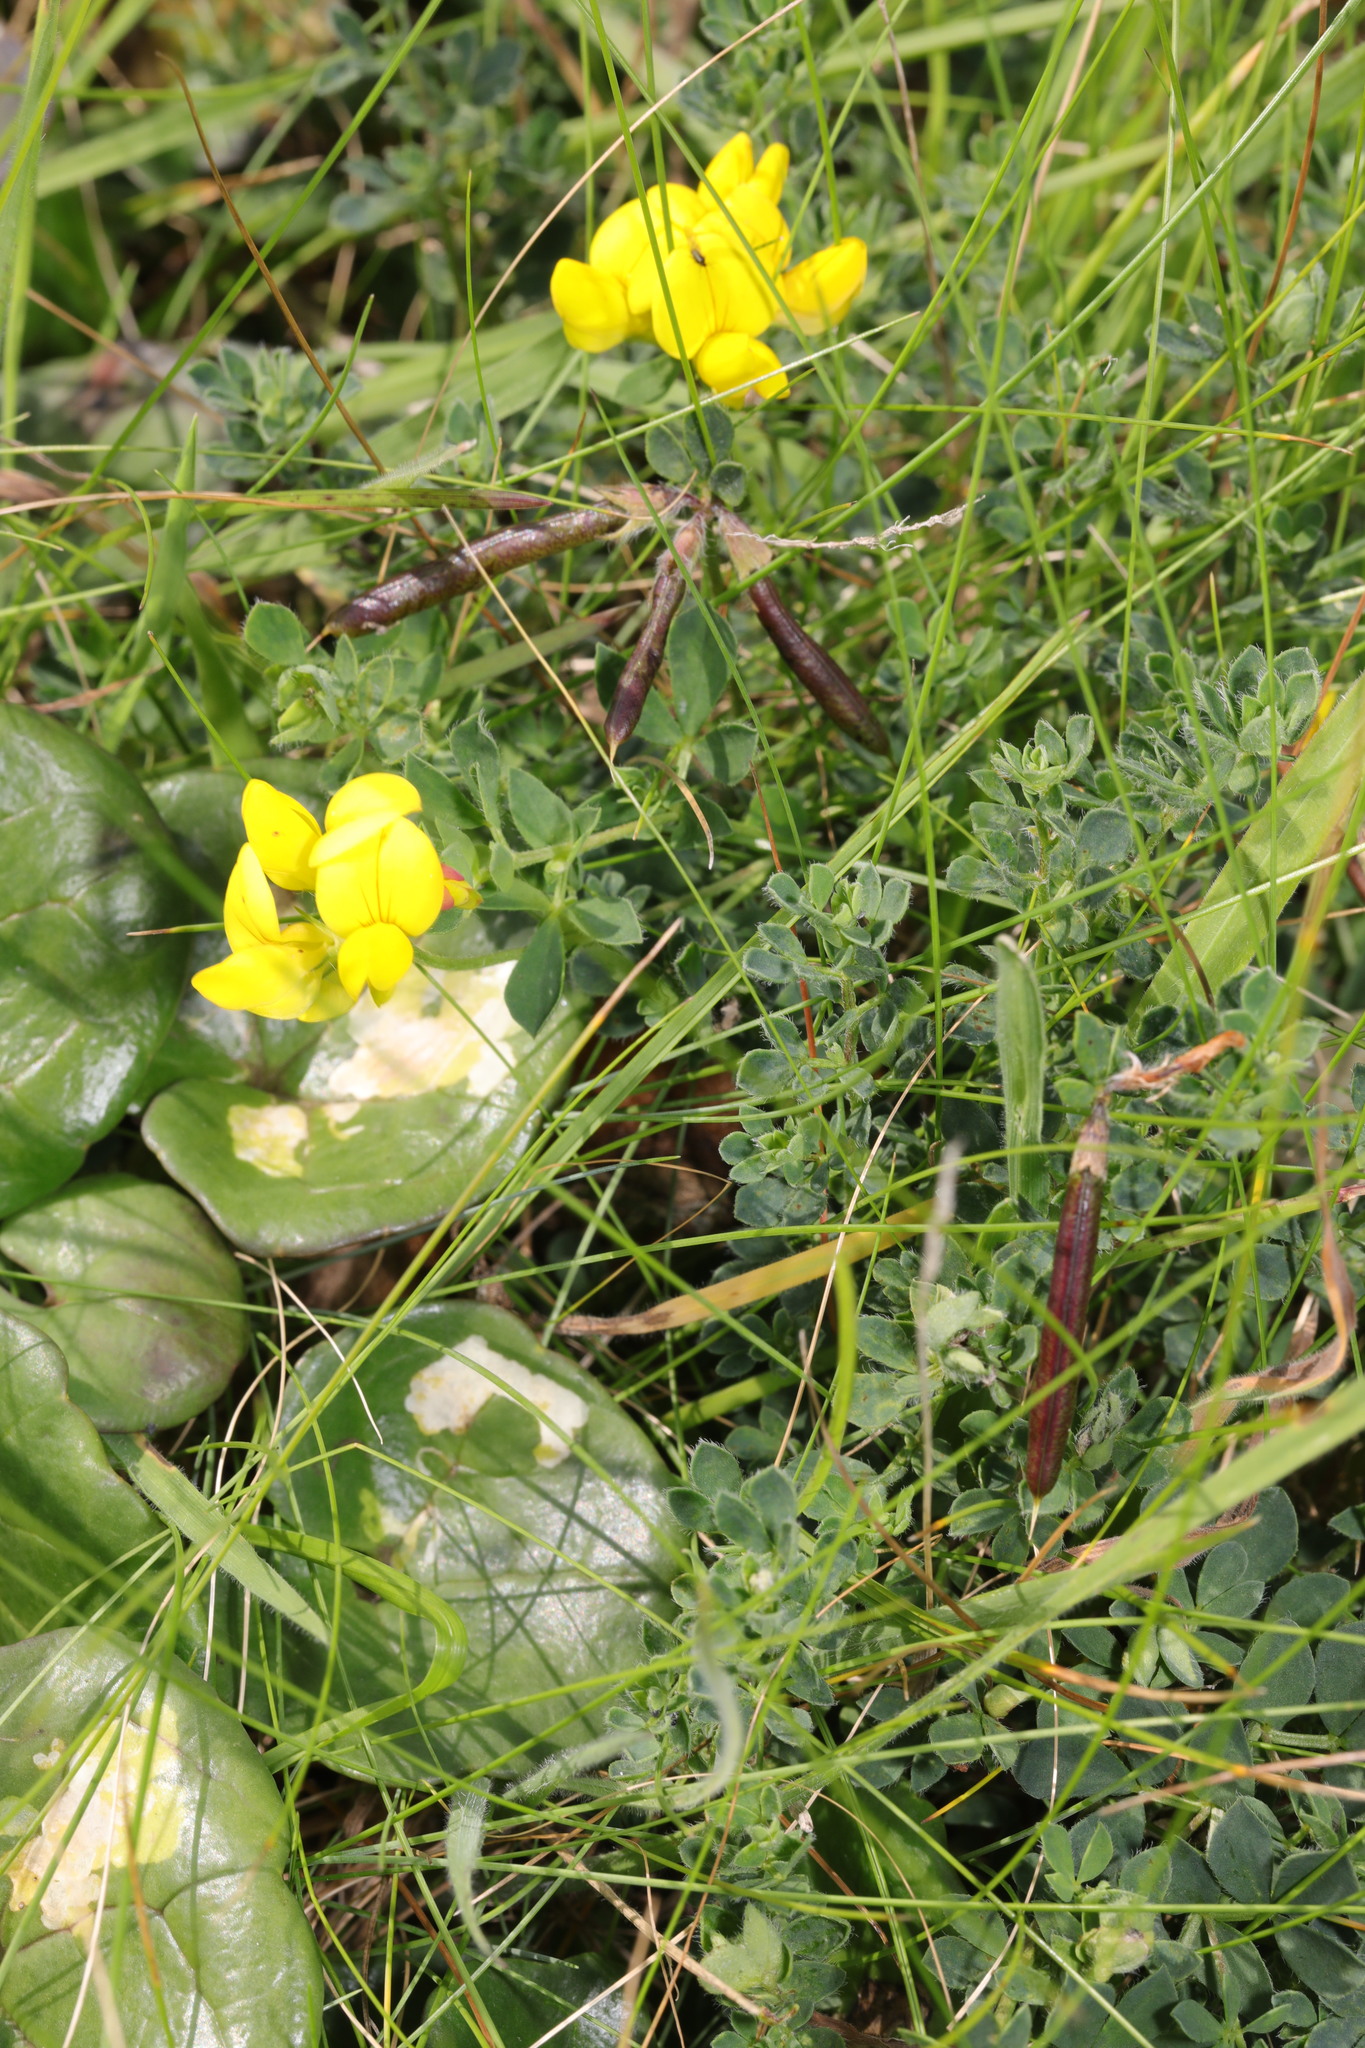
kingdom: Plantae
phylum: Tracheophyta
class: Magnoliopsida
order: Fabales
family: Fabaceae
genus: Lotus
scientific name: Lotus corniculatus
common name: Common bird's-foot-trefoil
